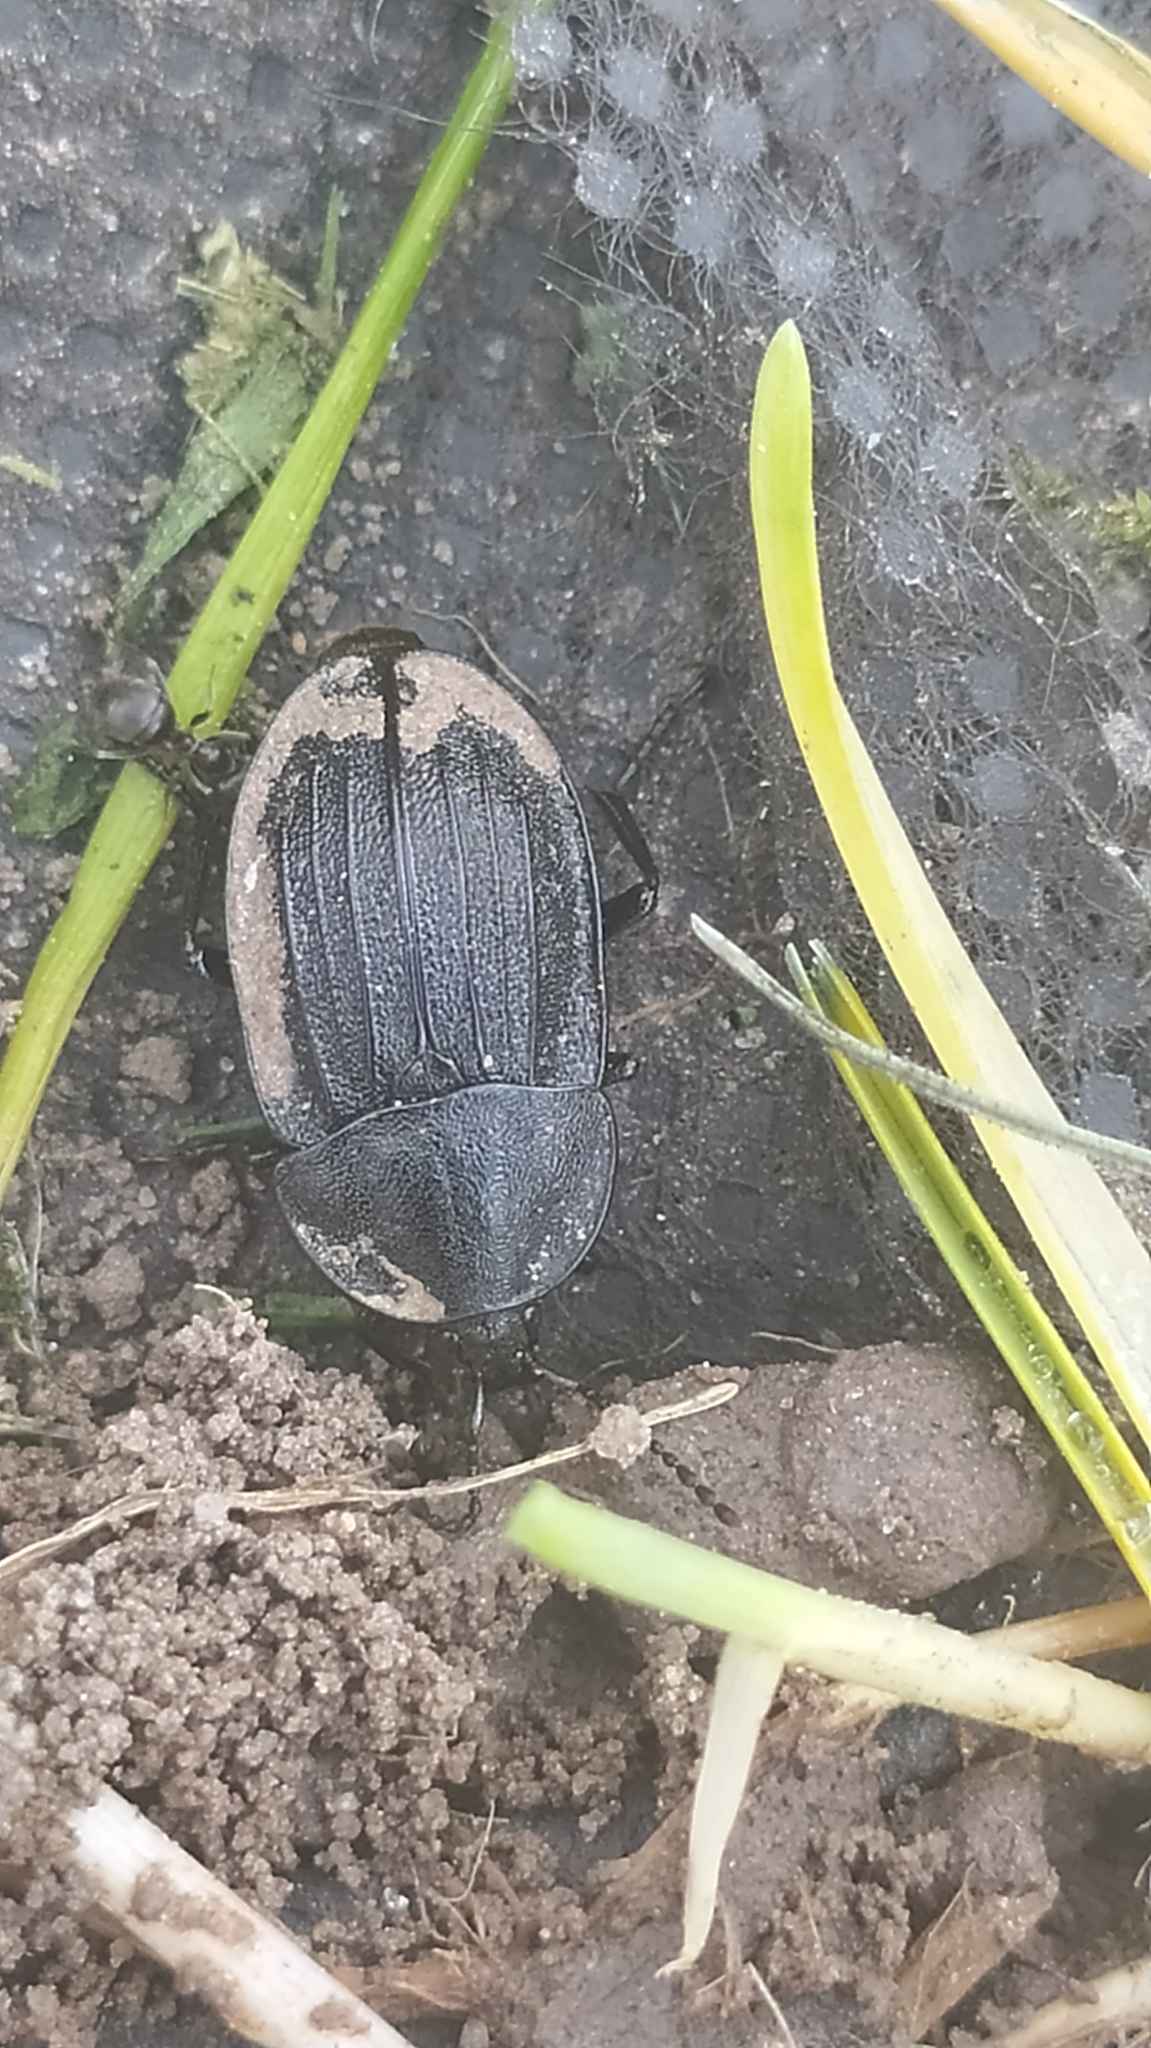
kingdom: Animalia
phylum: Arthropoda
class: Insecta
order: Coleoptera
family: Staphylinidae
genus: Silpha
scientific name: Silpha atrata
